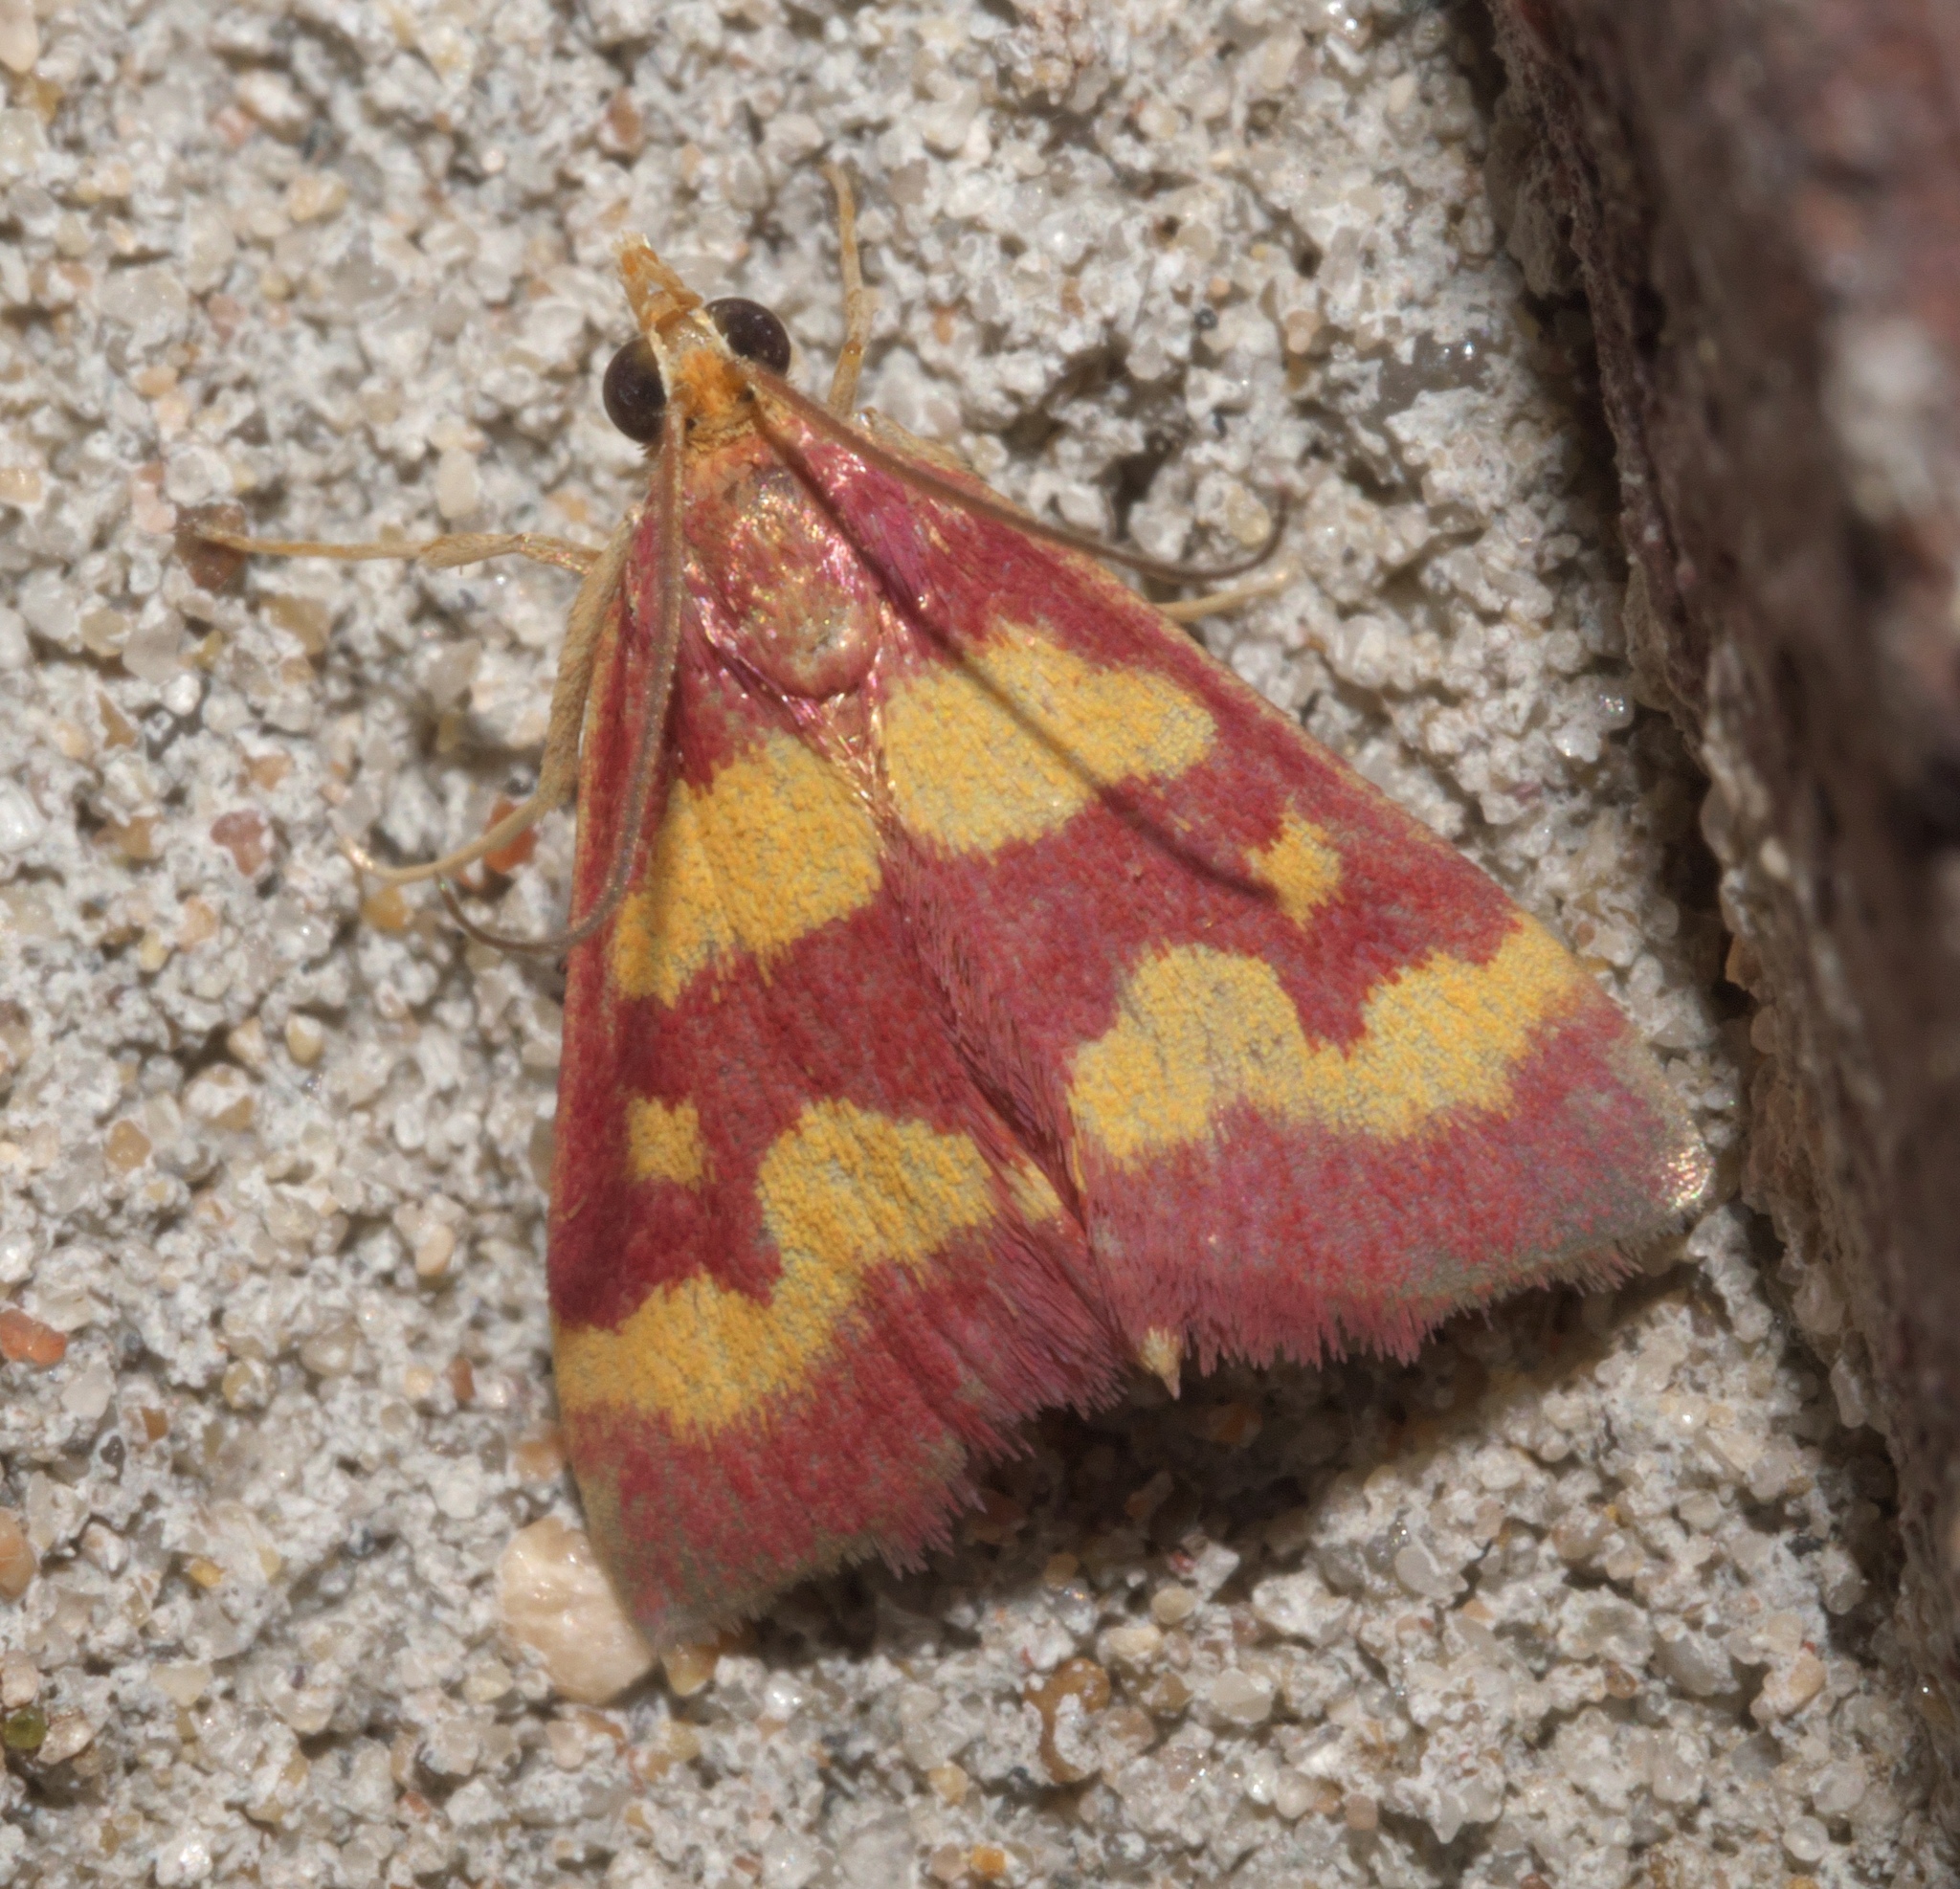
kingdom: Animalia
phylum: Arthropoda
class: Insecta
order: Lepidoptera
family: Crambidae
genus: Pyrausta
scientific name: Pyrausta tyralis
